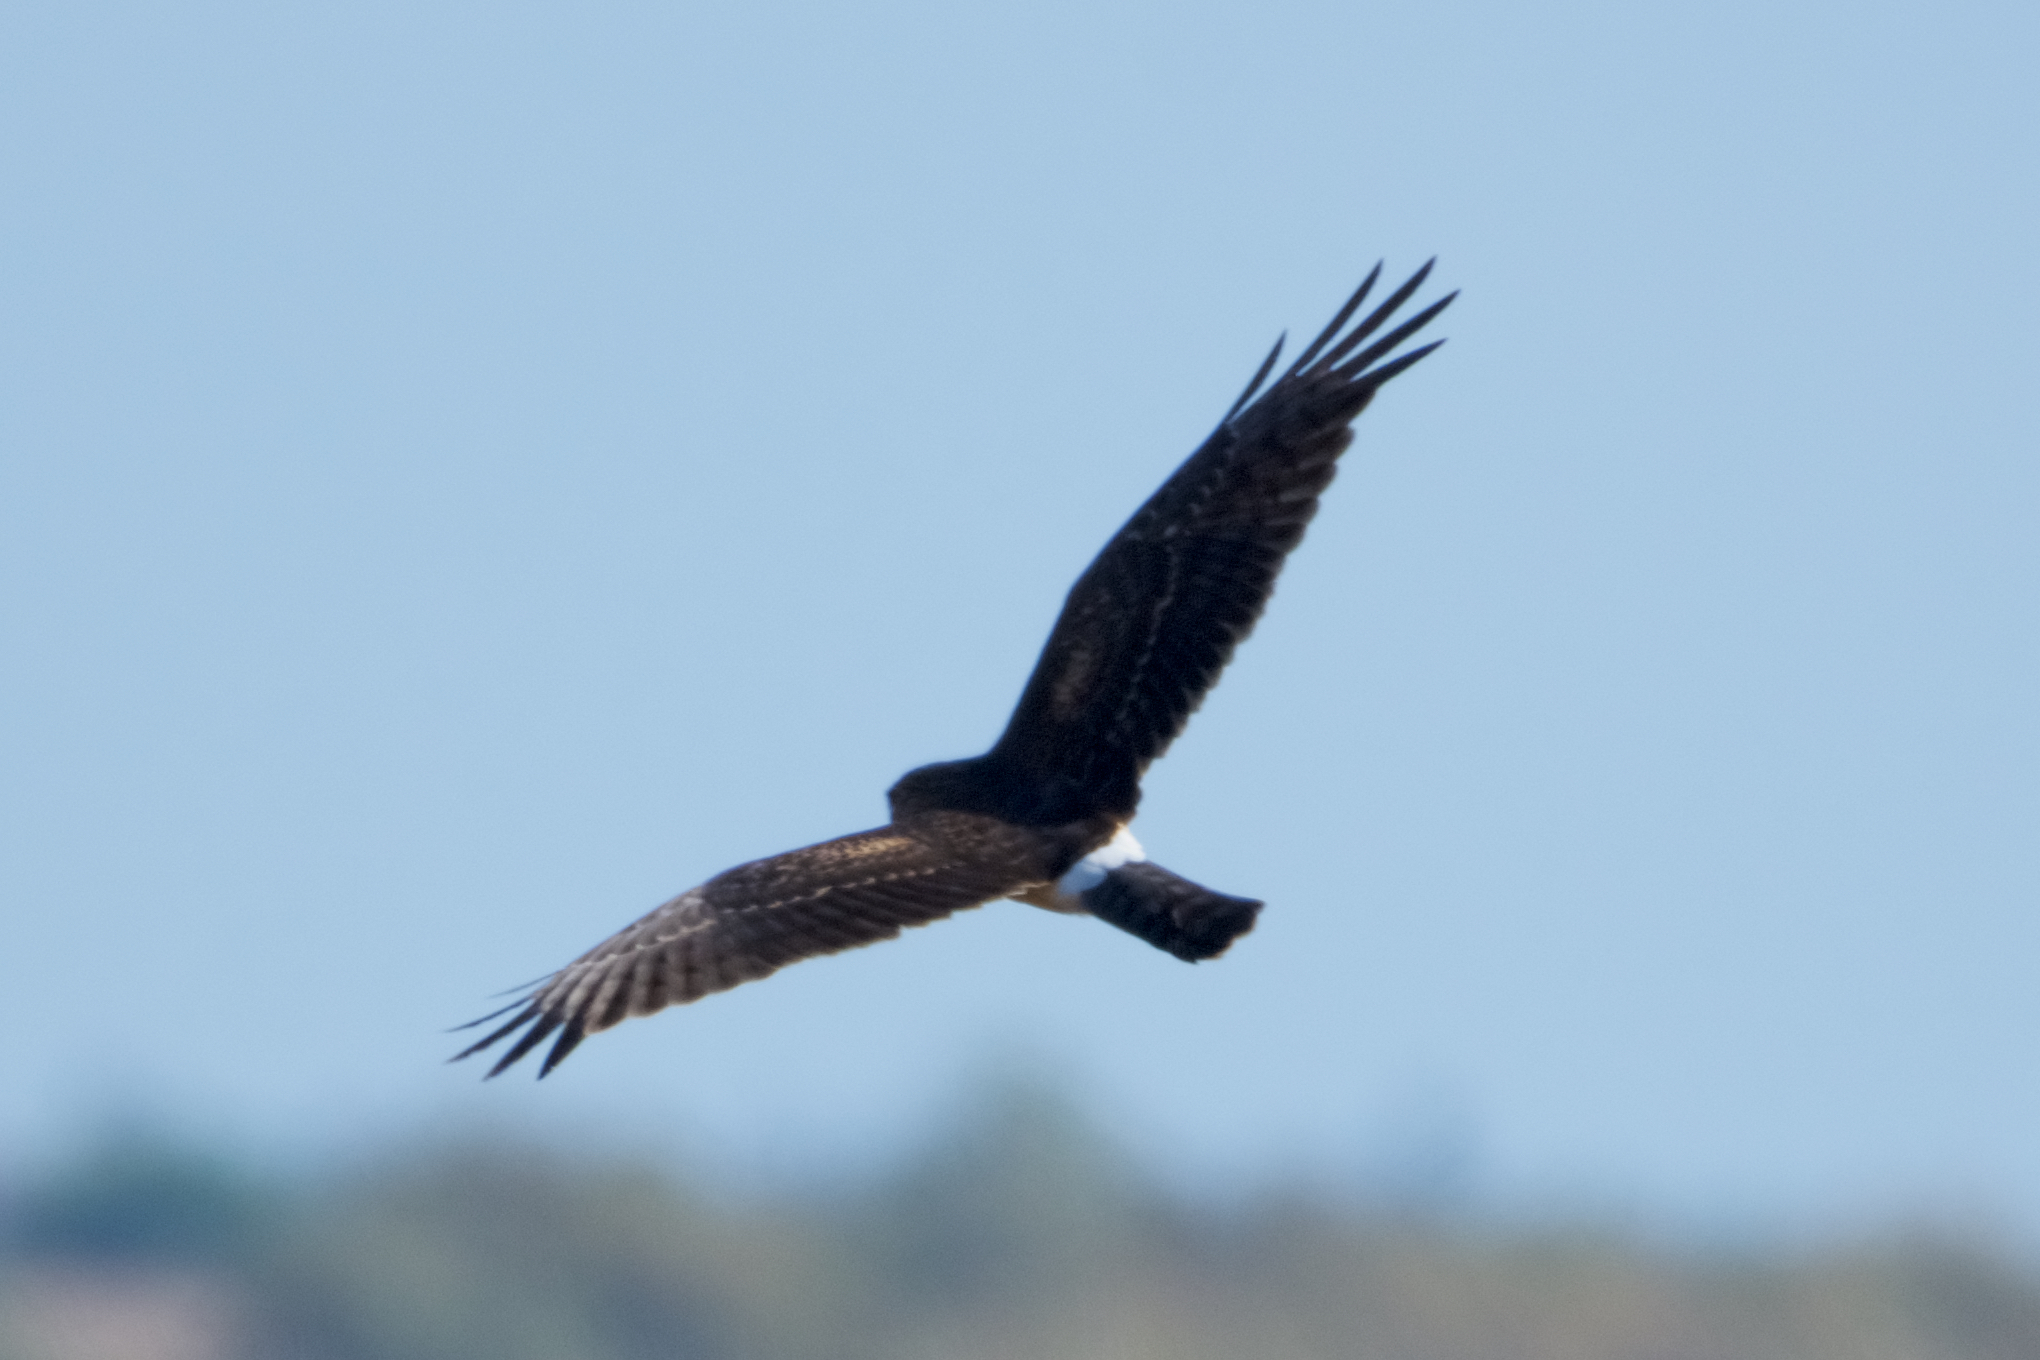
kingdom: Animalia
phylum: Chordata
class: Aves
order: Accipitriformes
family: Accipitridae
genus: Circus
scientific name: Circus cyaneus
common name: Hen harrier
